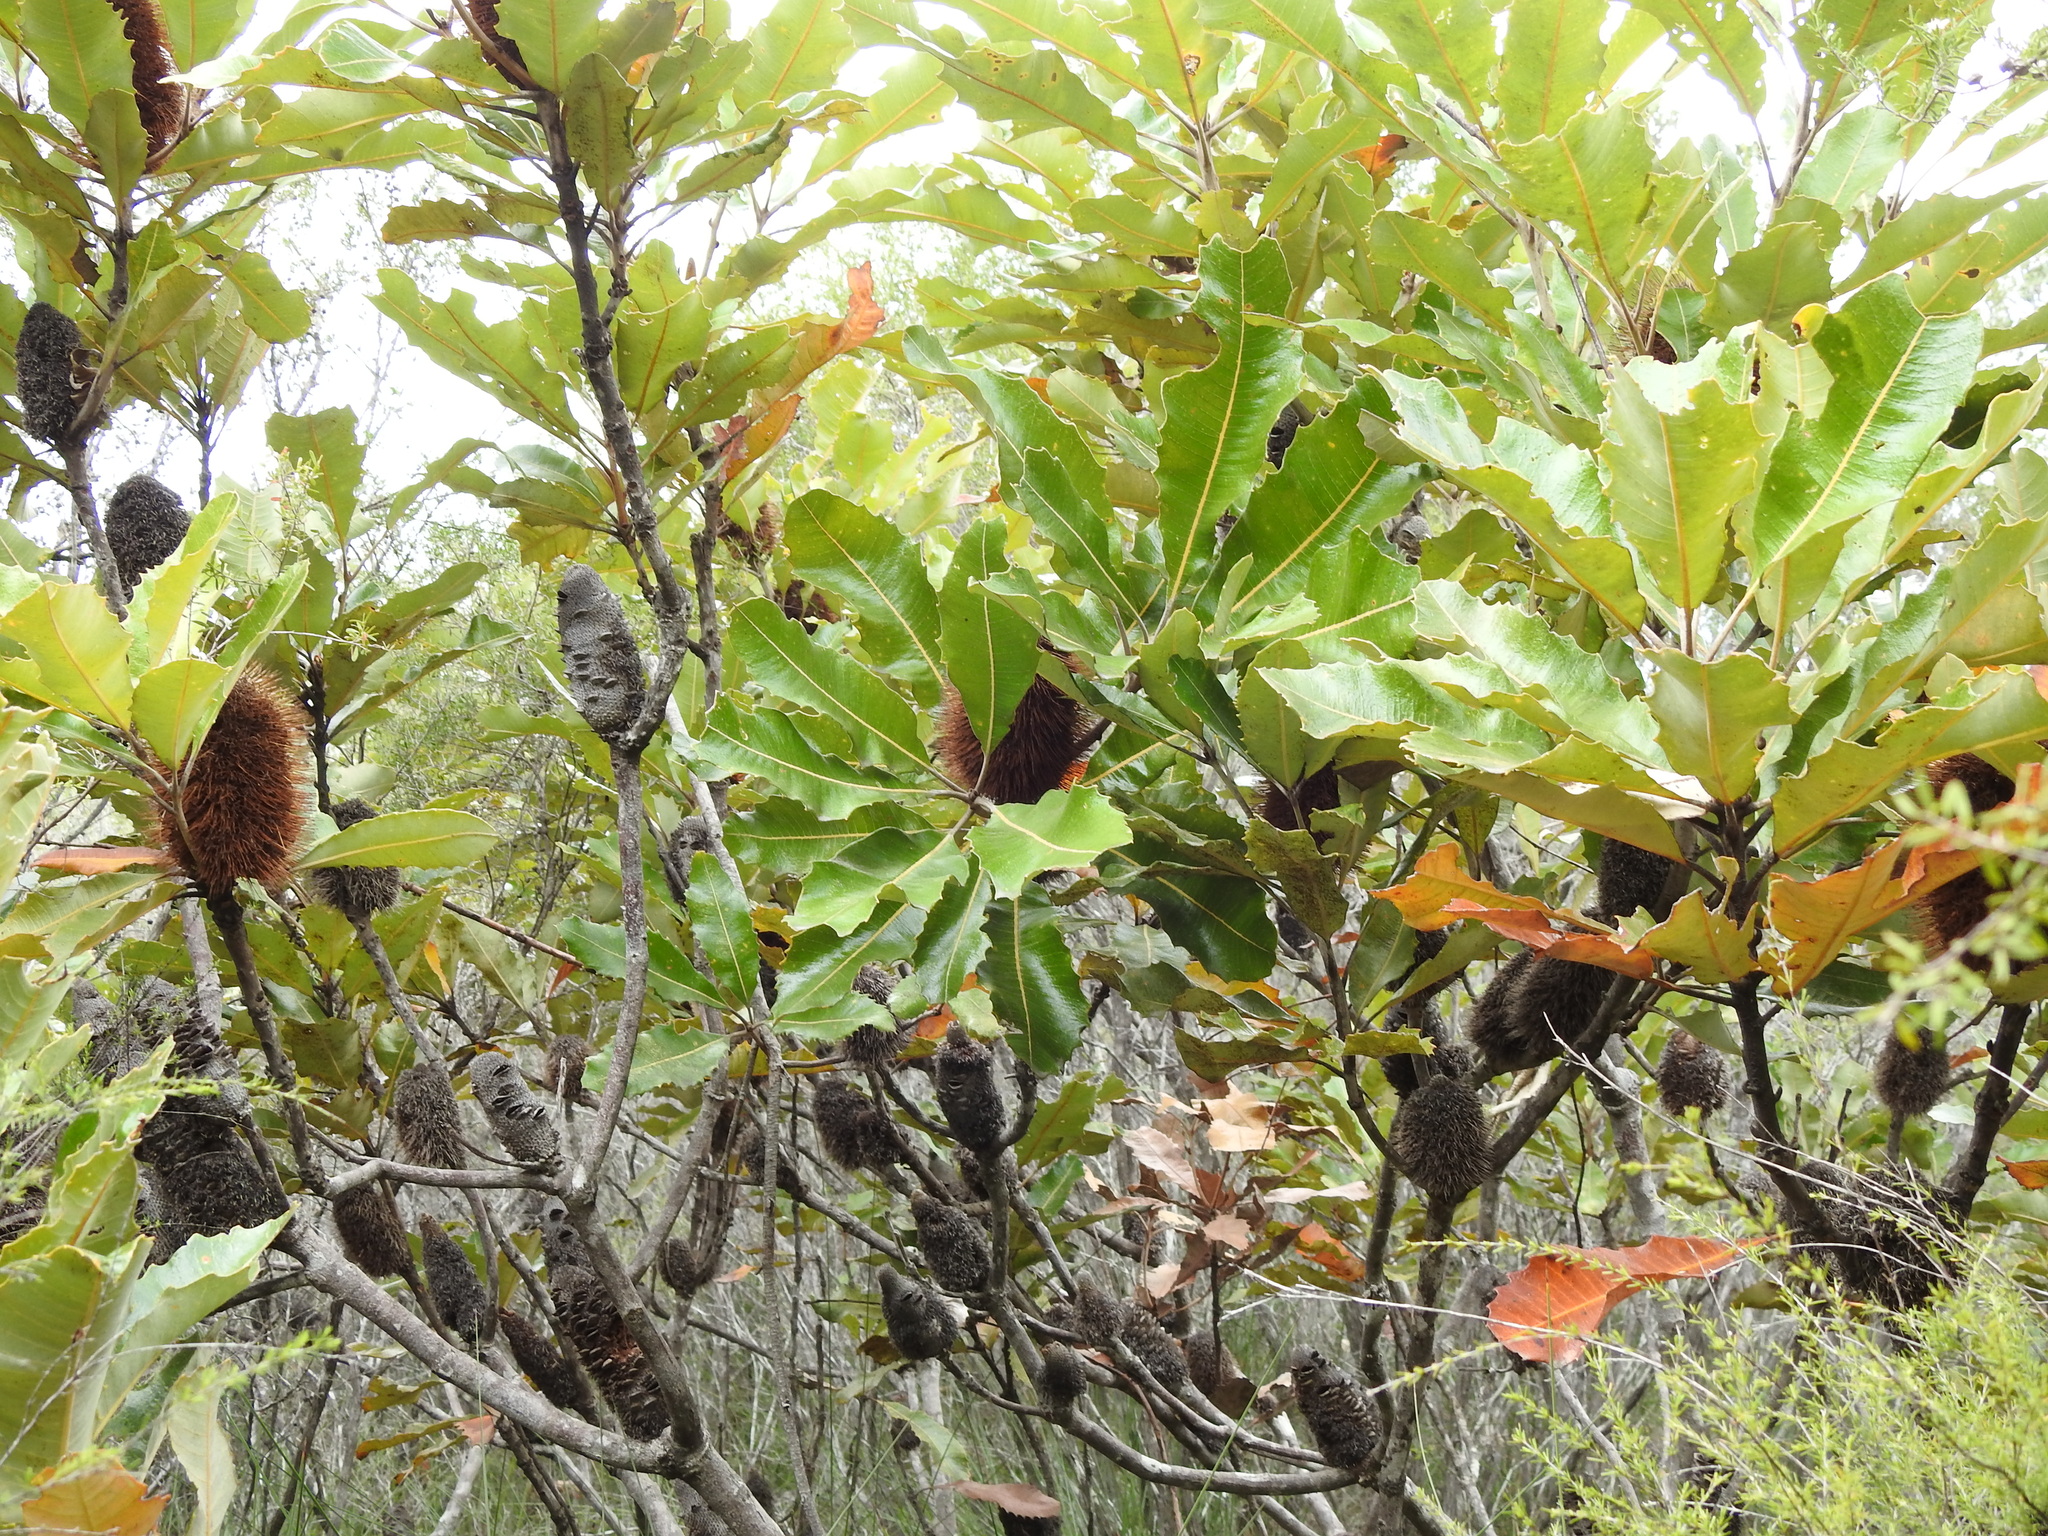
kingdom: Plantae
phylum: Tracheophyta
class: Magnoliopsida
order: Proteales
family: Proteaceae
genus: Banksia
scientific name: Banksia robur
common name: Broadleaf banksia
